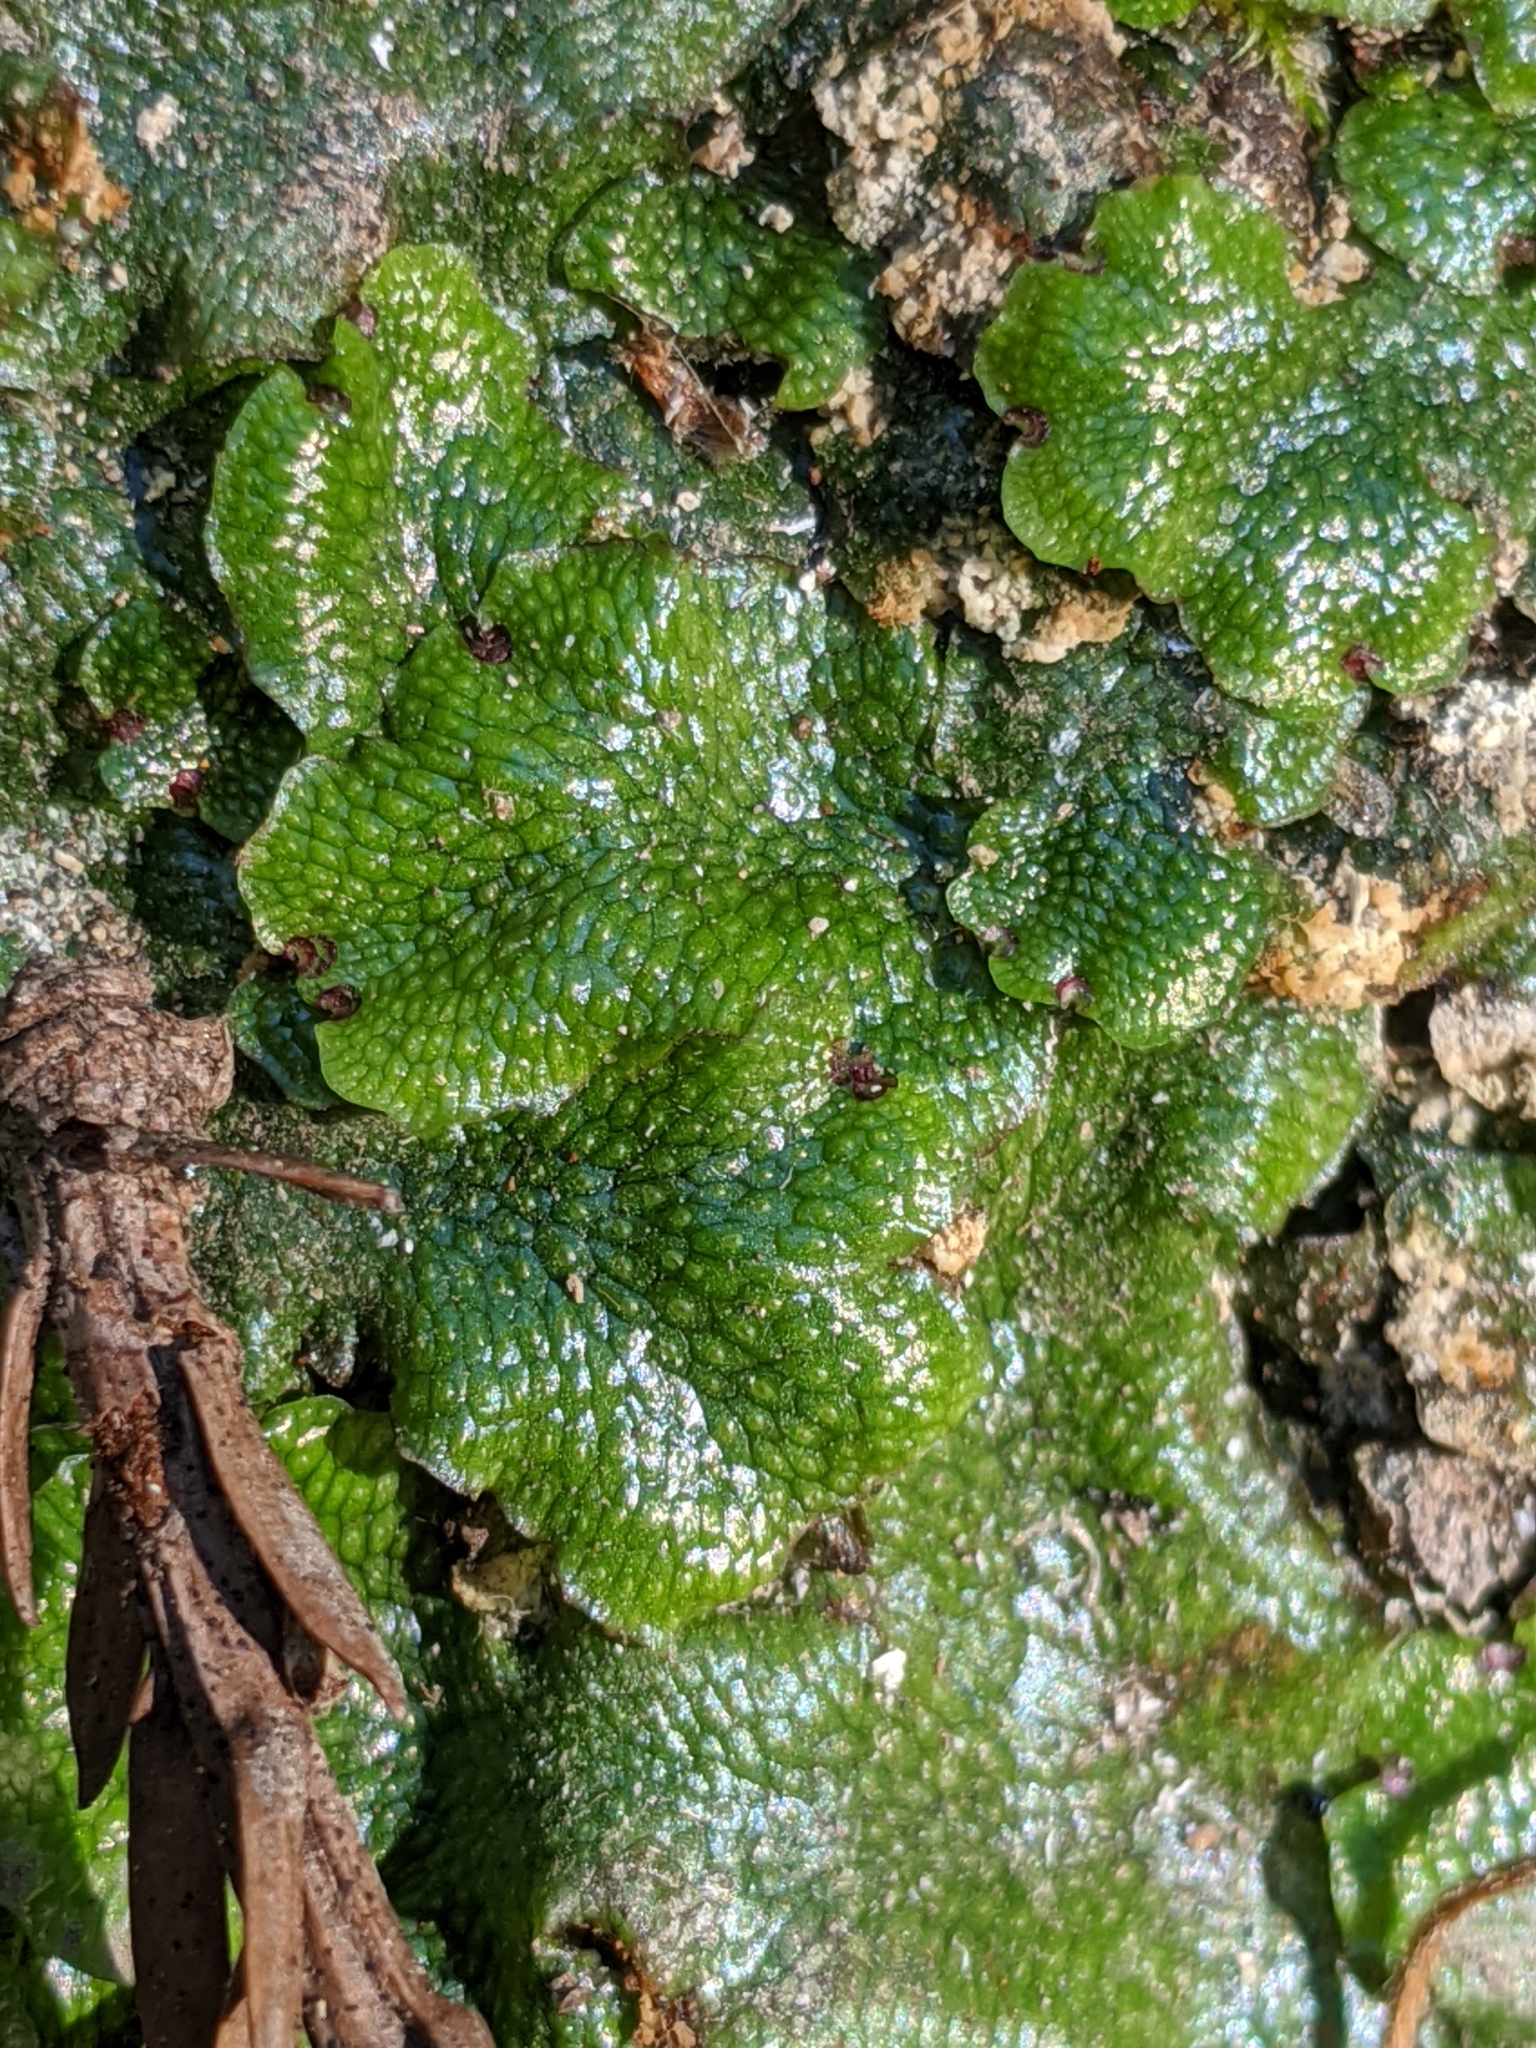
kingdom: Plantae
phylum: Marchantiophyta
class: Marchantiopsida
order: Marchantiales
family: Conocephalaceae
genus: Conocephalum
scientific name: Conocephalum salebrosum
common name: Cat-tongue liverwort
